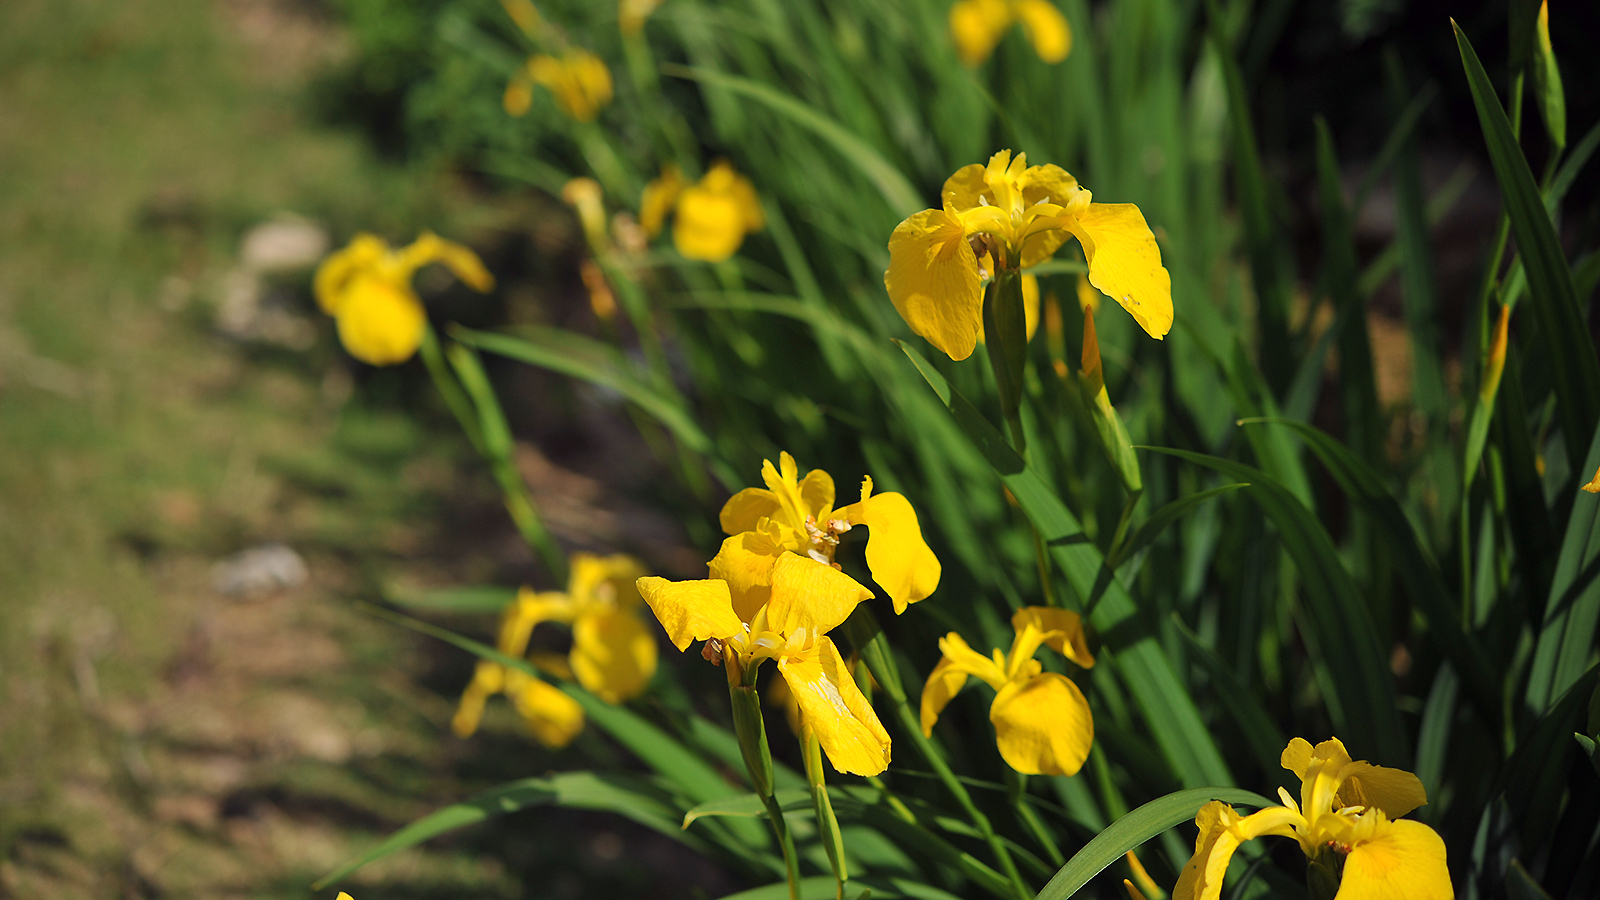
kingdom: Plantae
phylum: Tracheophyta
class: Liliopsida
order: Asparagales
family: Iridaceae
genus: Iris
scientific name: Iris pseudacorus
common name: Yellow flag
